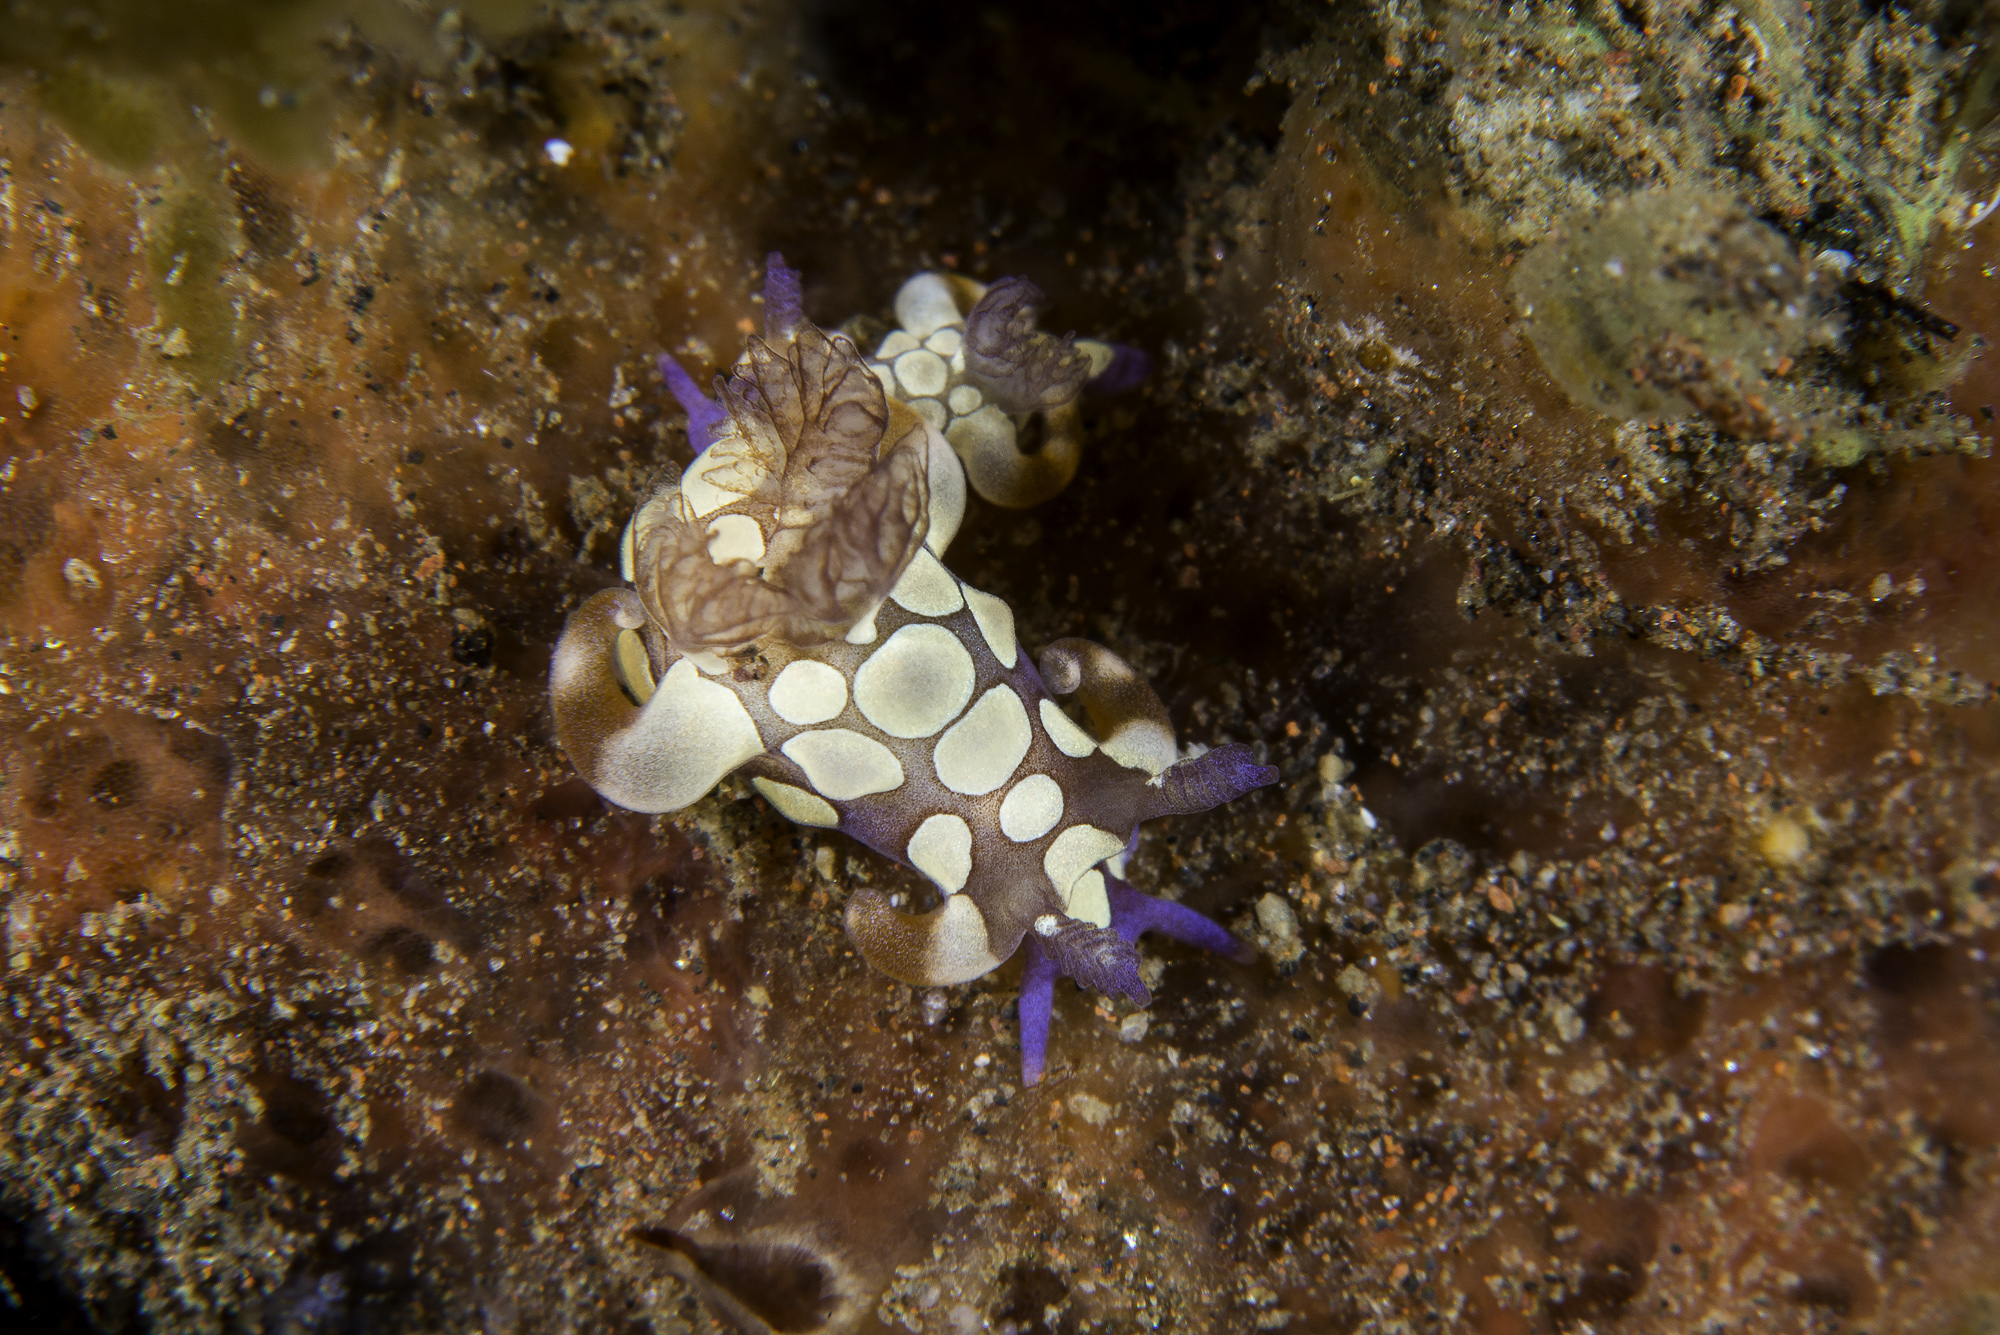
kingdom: Animalia
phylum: Mollusca
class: Gastropoda
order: Nudibranchia
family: Goniodorididae
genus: Trapania
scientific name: Trapania scurra
